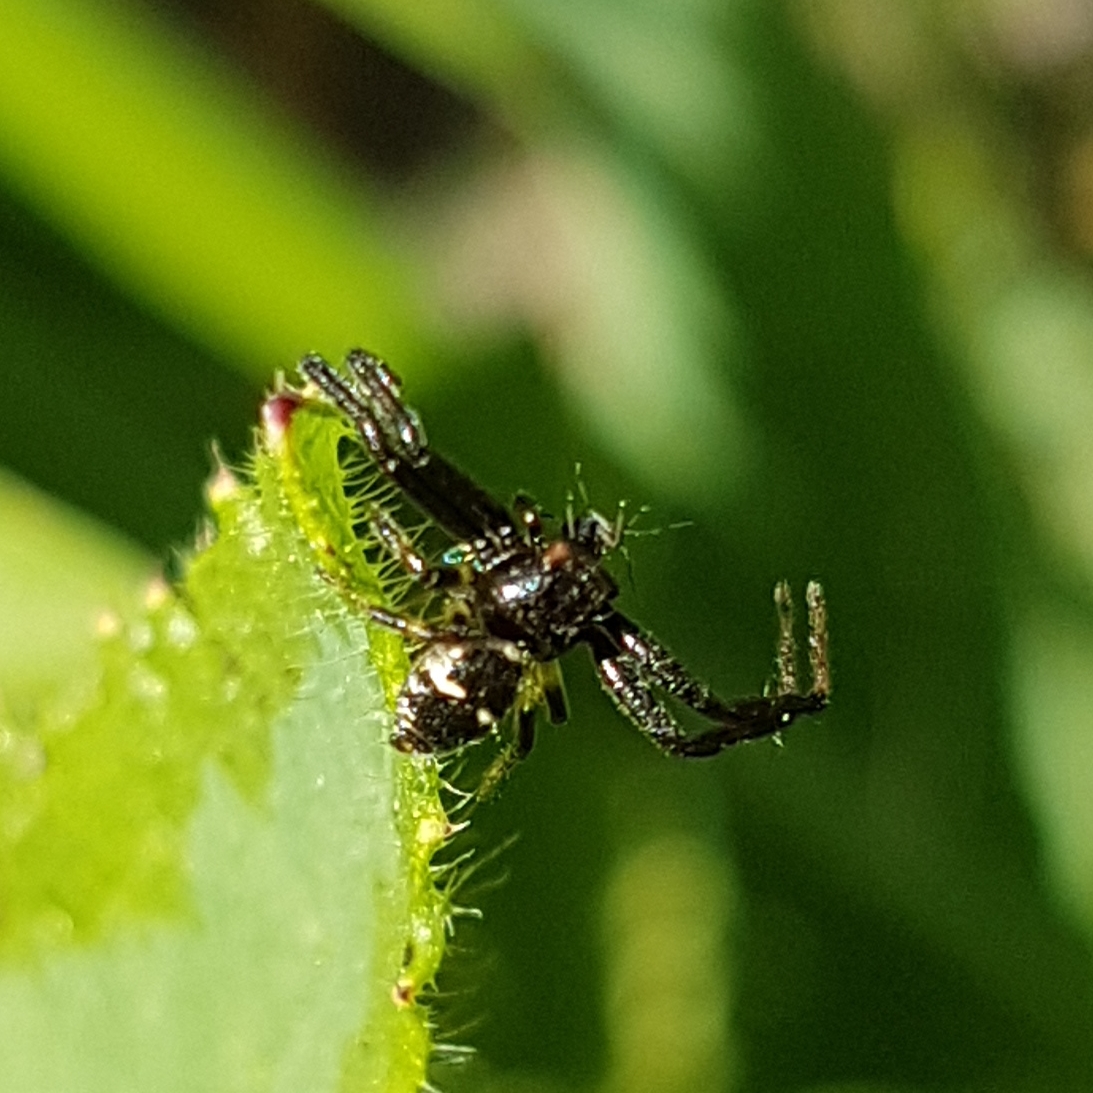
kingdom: Animalia
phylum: Arthropoda
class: Arachnida
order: Araneae
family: Thomisidae
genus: Synema
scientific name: Synema globosum
